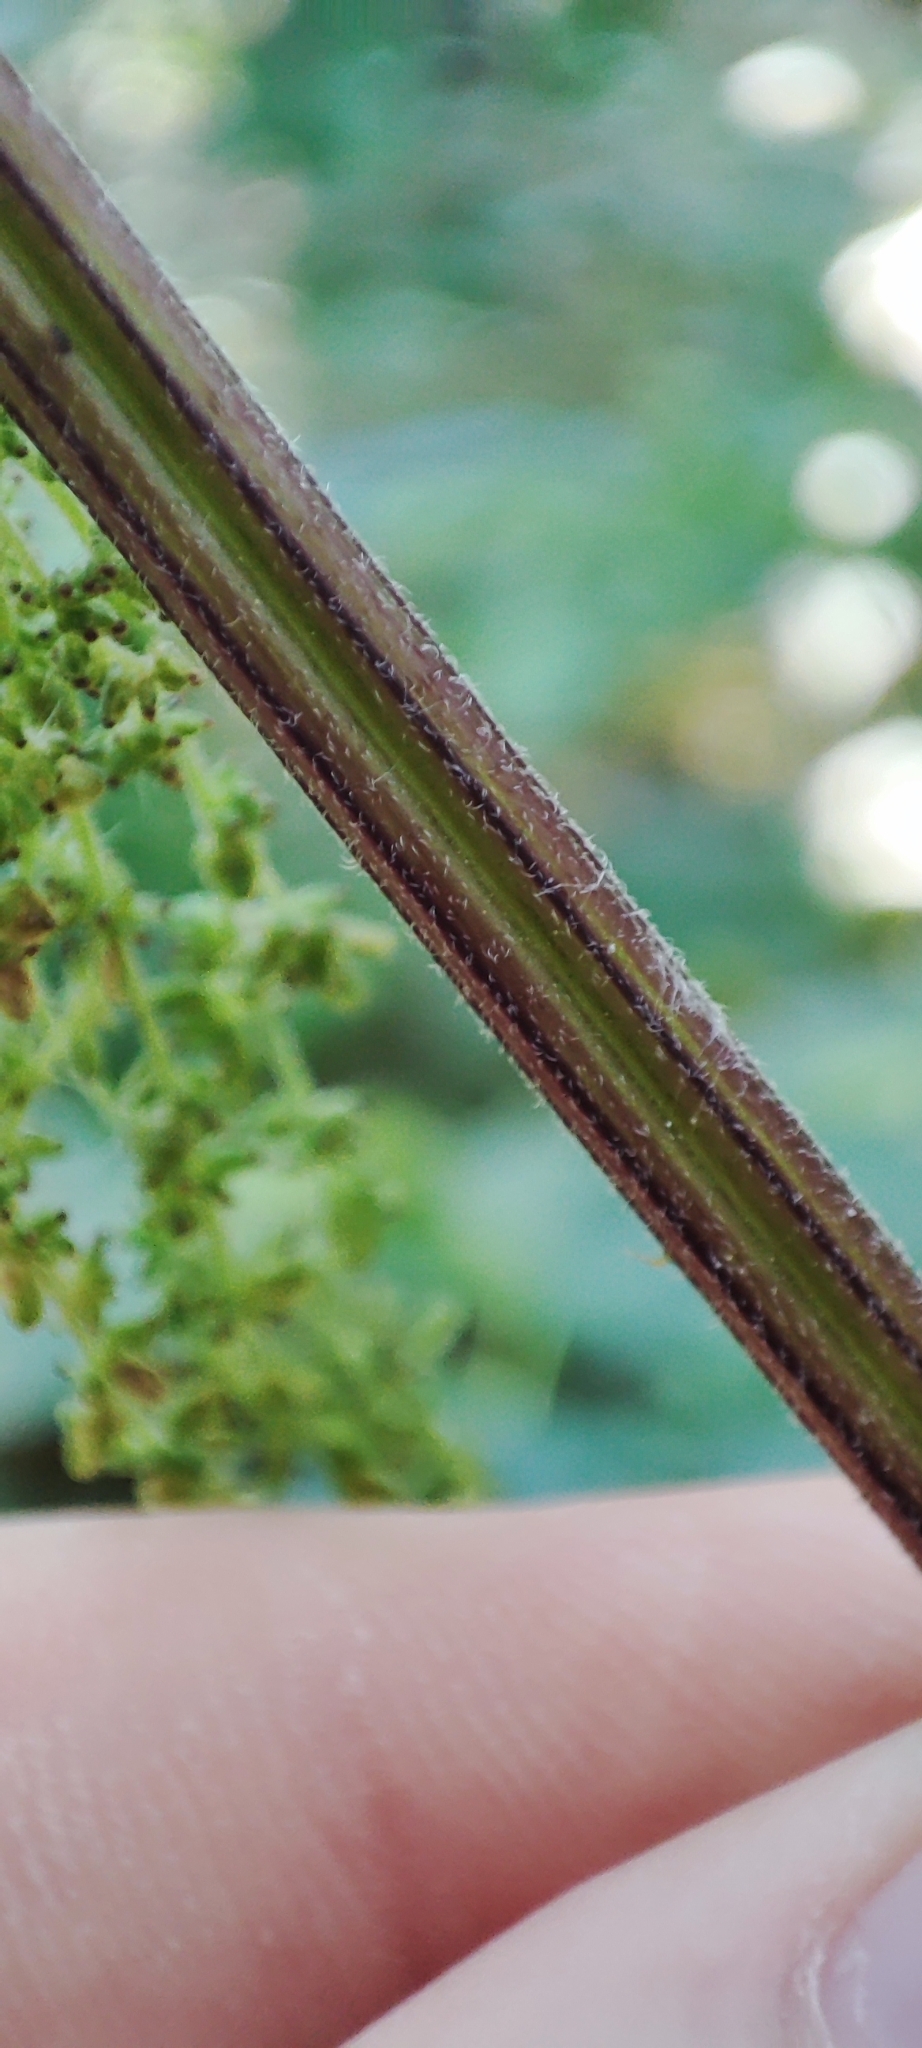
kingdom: Plantae
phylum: Tracheophyta
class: Magnoliopsida
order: Rosales
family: Urticaceae
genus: Urtica
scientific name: Urtica galeopsifolia
